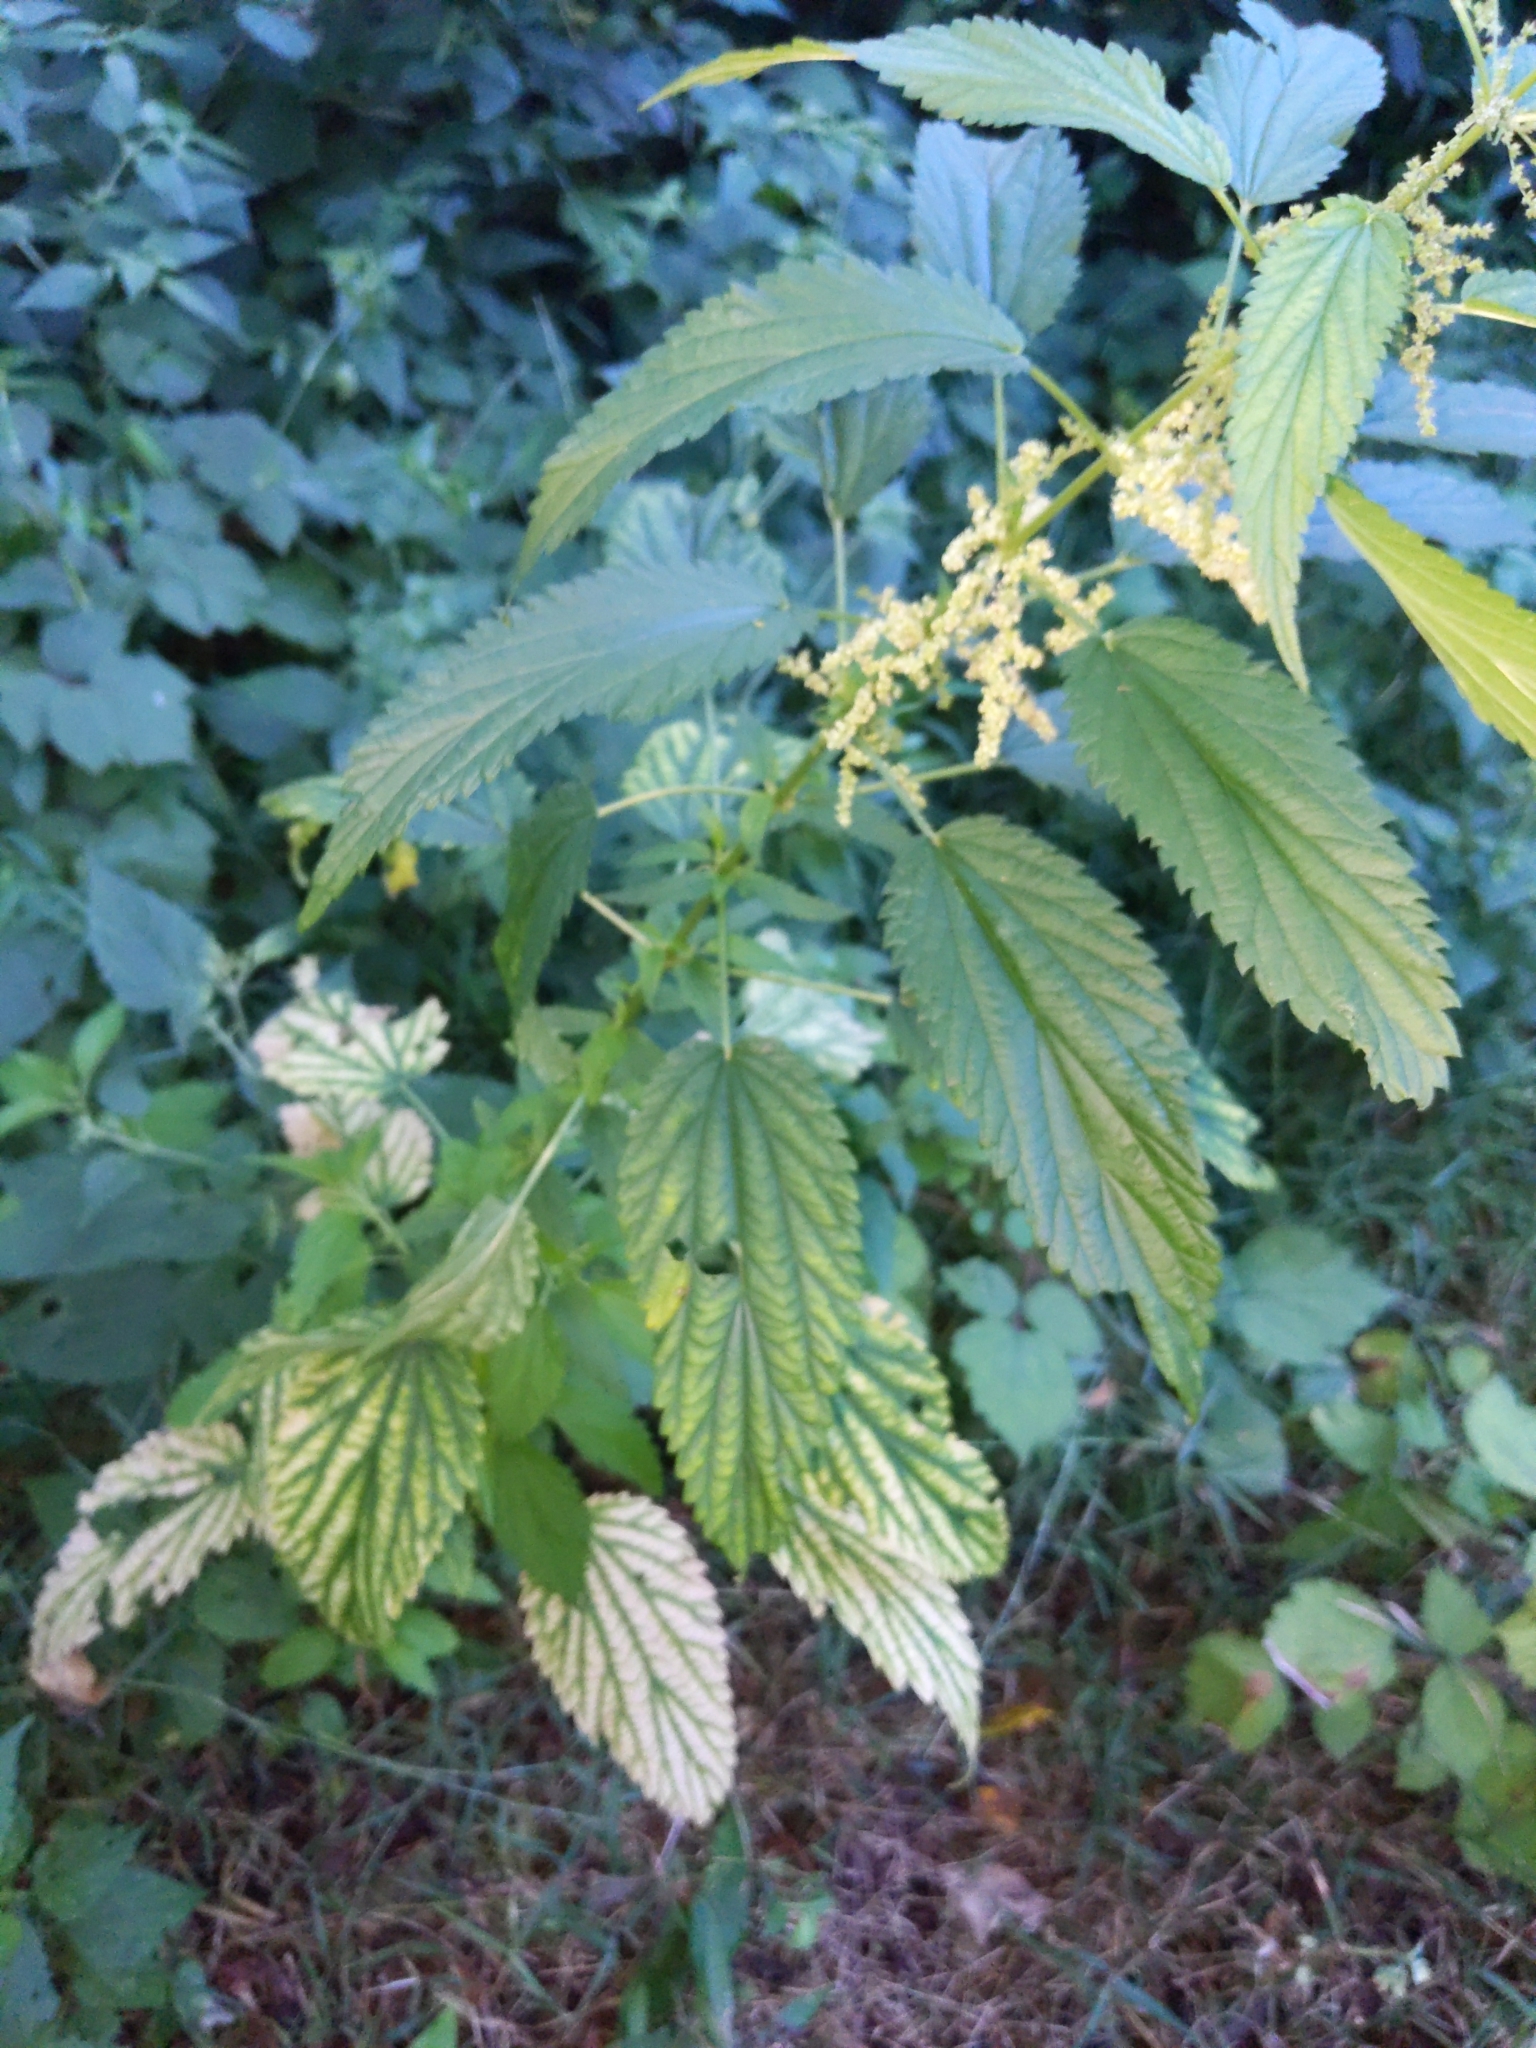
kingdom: Plantae
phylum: Tracheophyta
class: Magnoliopsida
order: Rosales
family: Urticaceae
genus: Urtica
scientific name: Urtica dioica
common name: Common nettle
